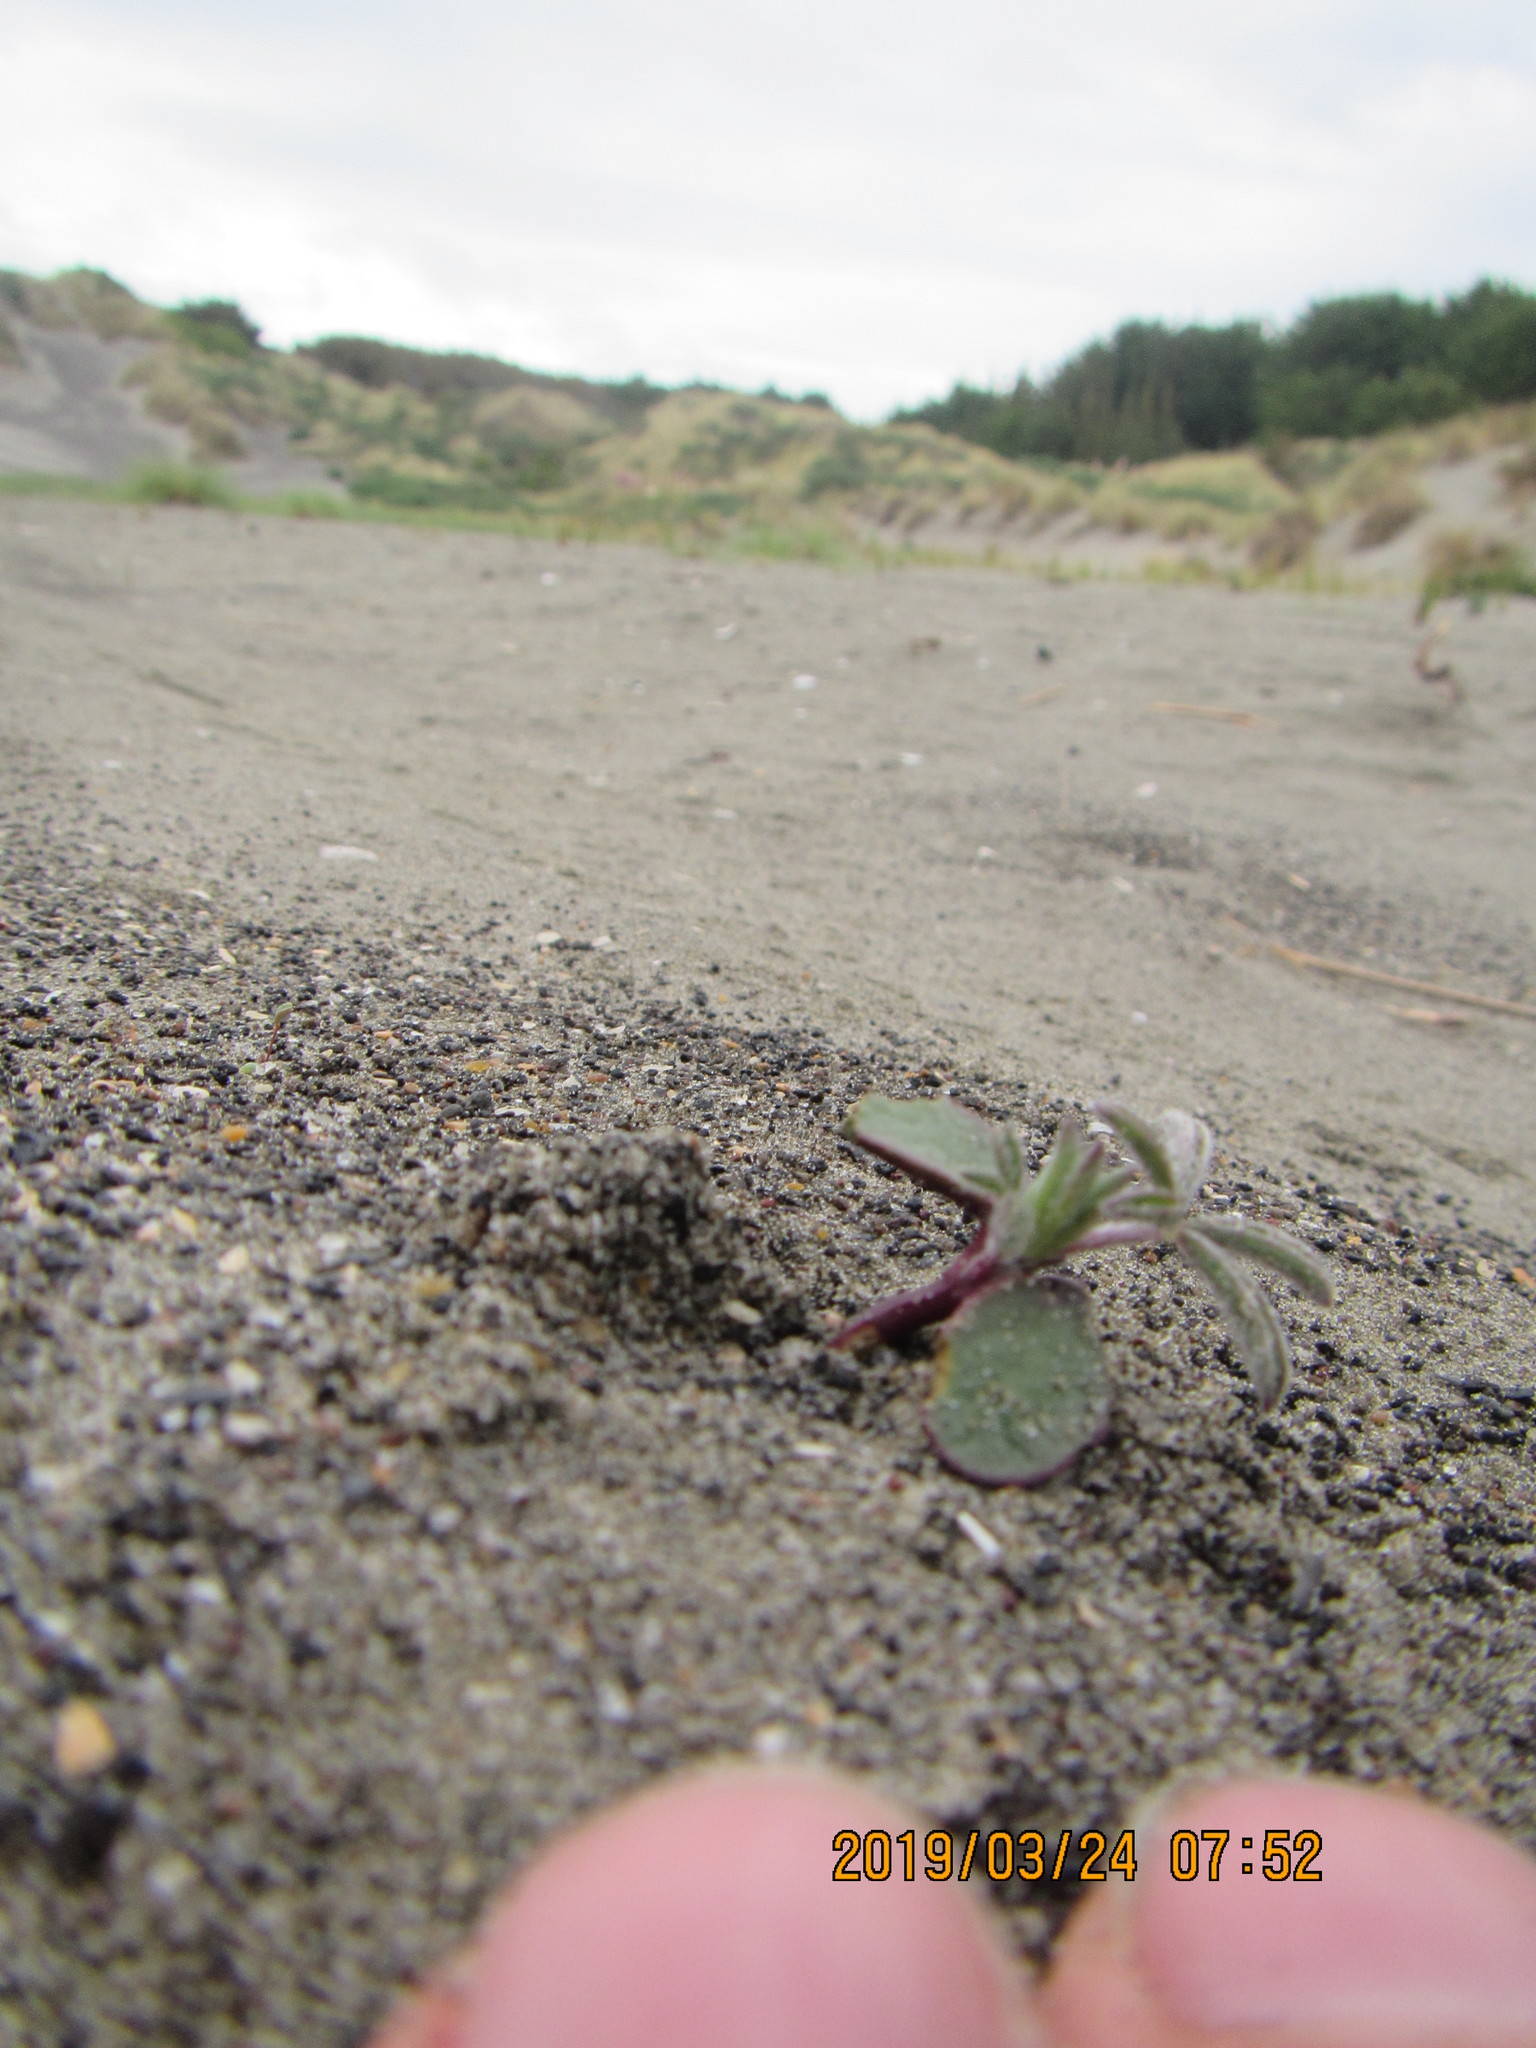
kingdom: Plantae
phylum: Tracheophyta
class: Magnoliopsida
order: Fabales
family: Fabaceae
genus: Lupinus
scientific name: Lupinus arboreus
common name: Yellow bush lupine
